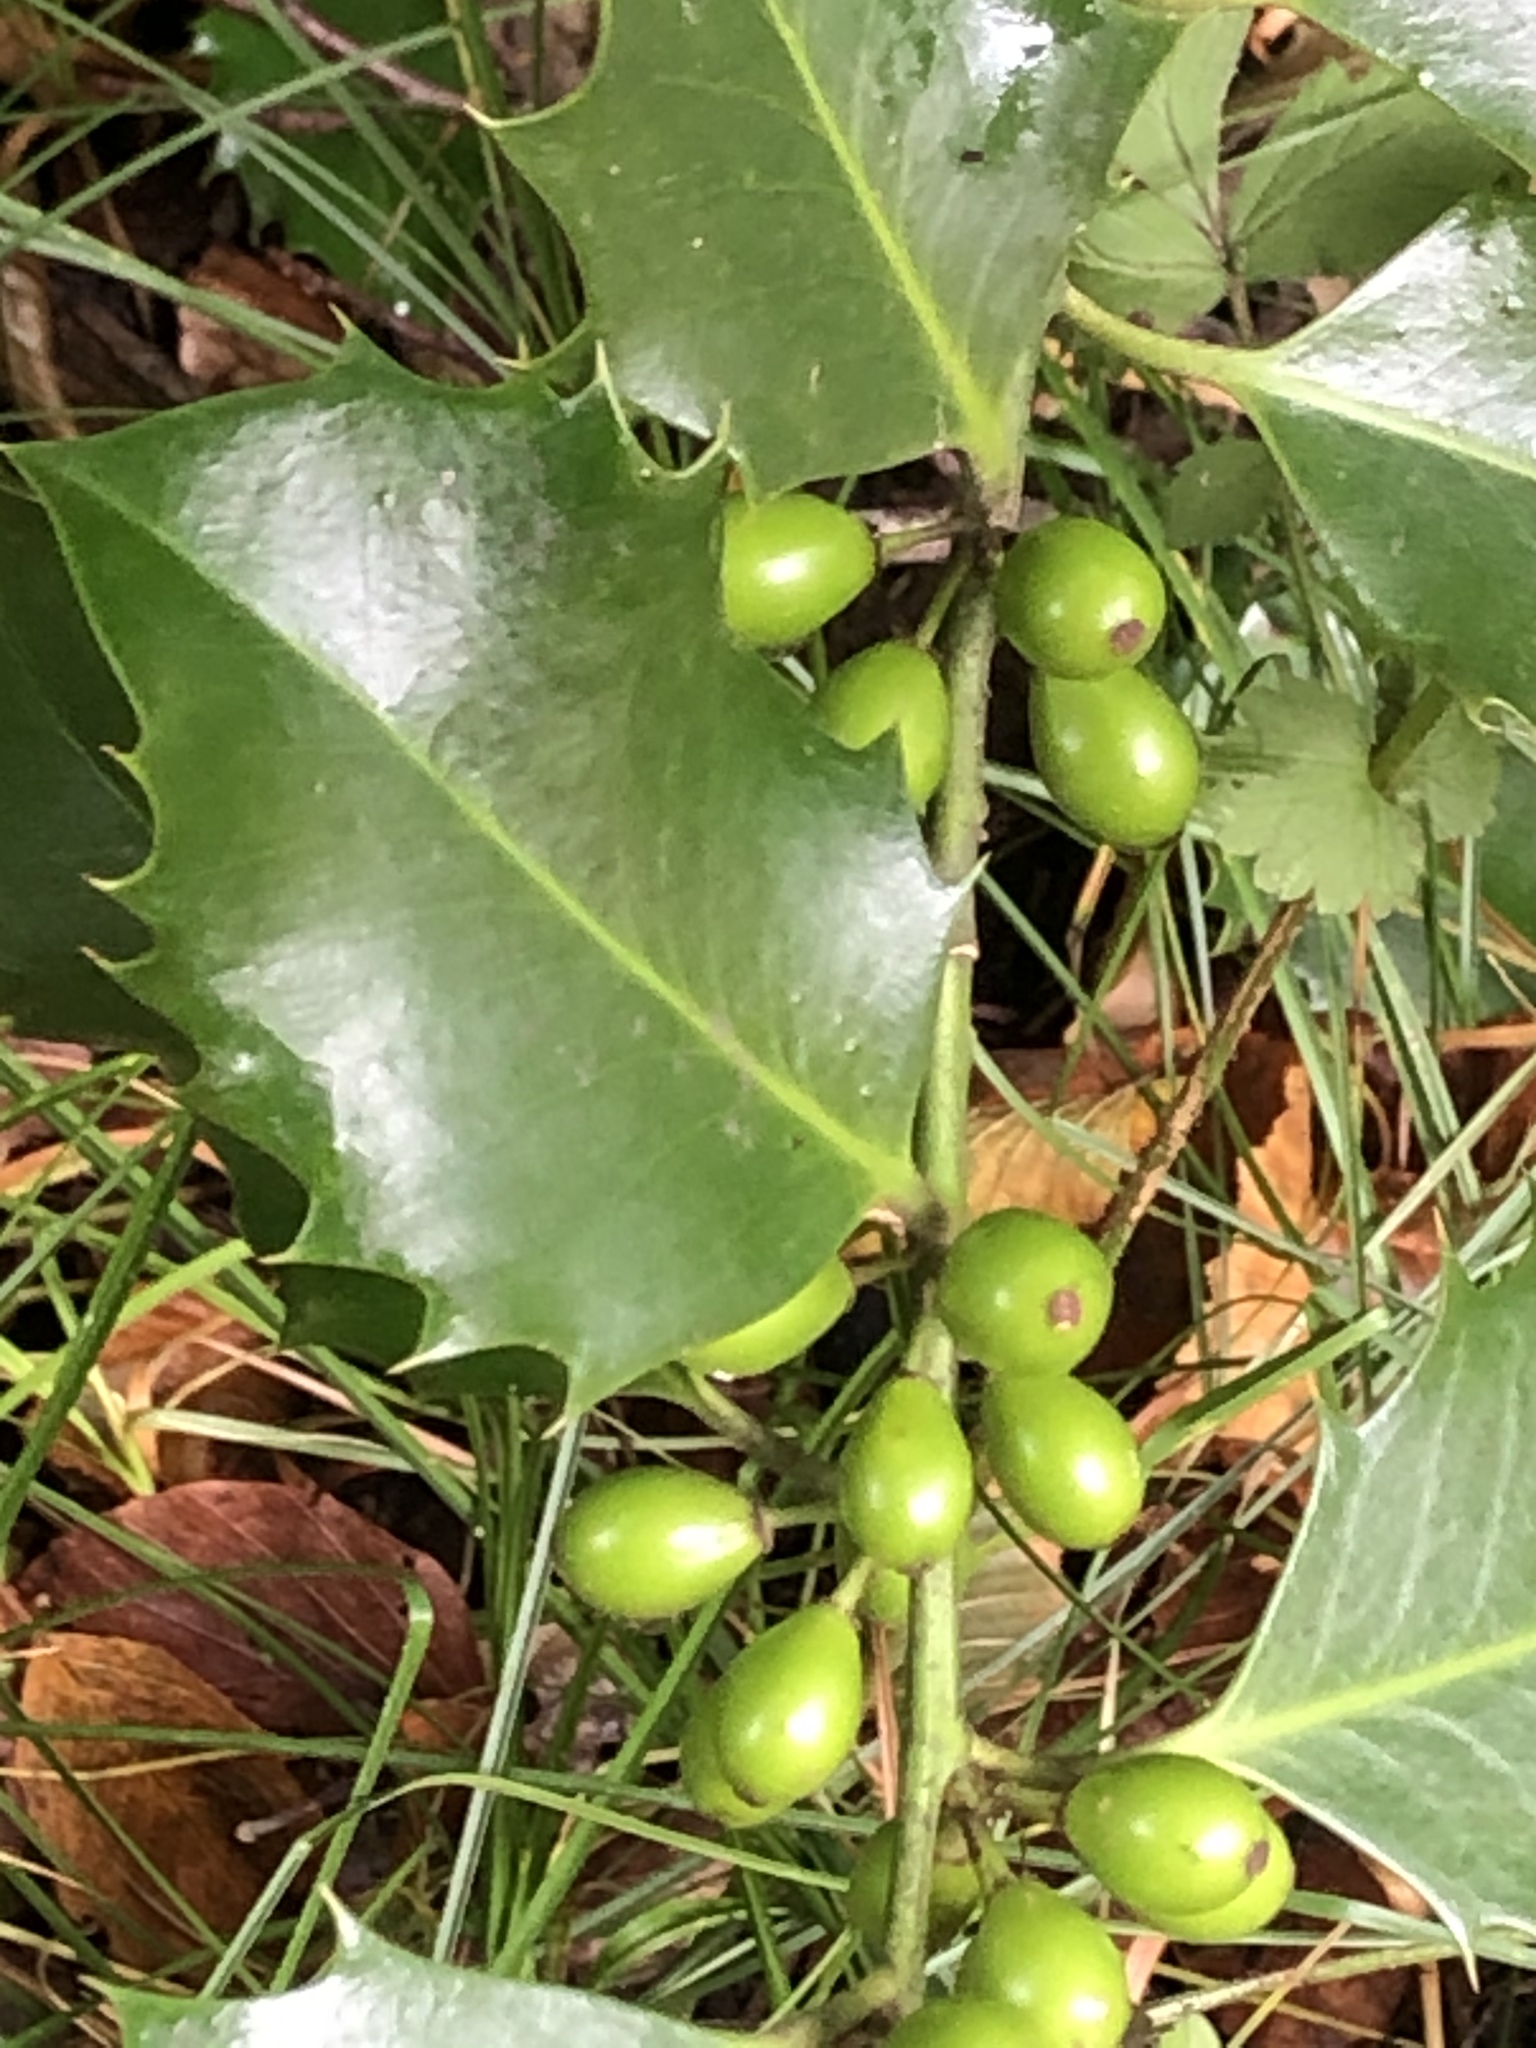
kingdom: Plantae
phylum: Tracheophyta
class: Magnoliopsida
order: Aquifoliales
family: Aquifoliaceae
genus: Ilex
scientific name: Ilex aquifolium
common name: English holly
